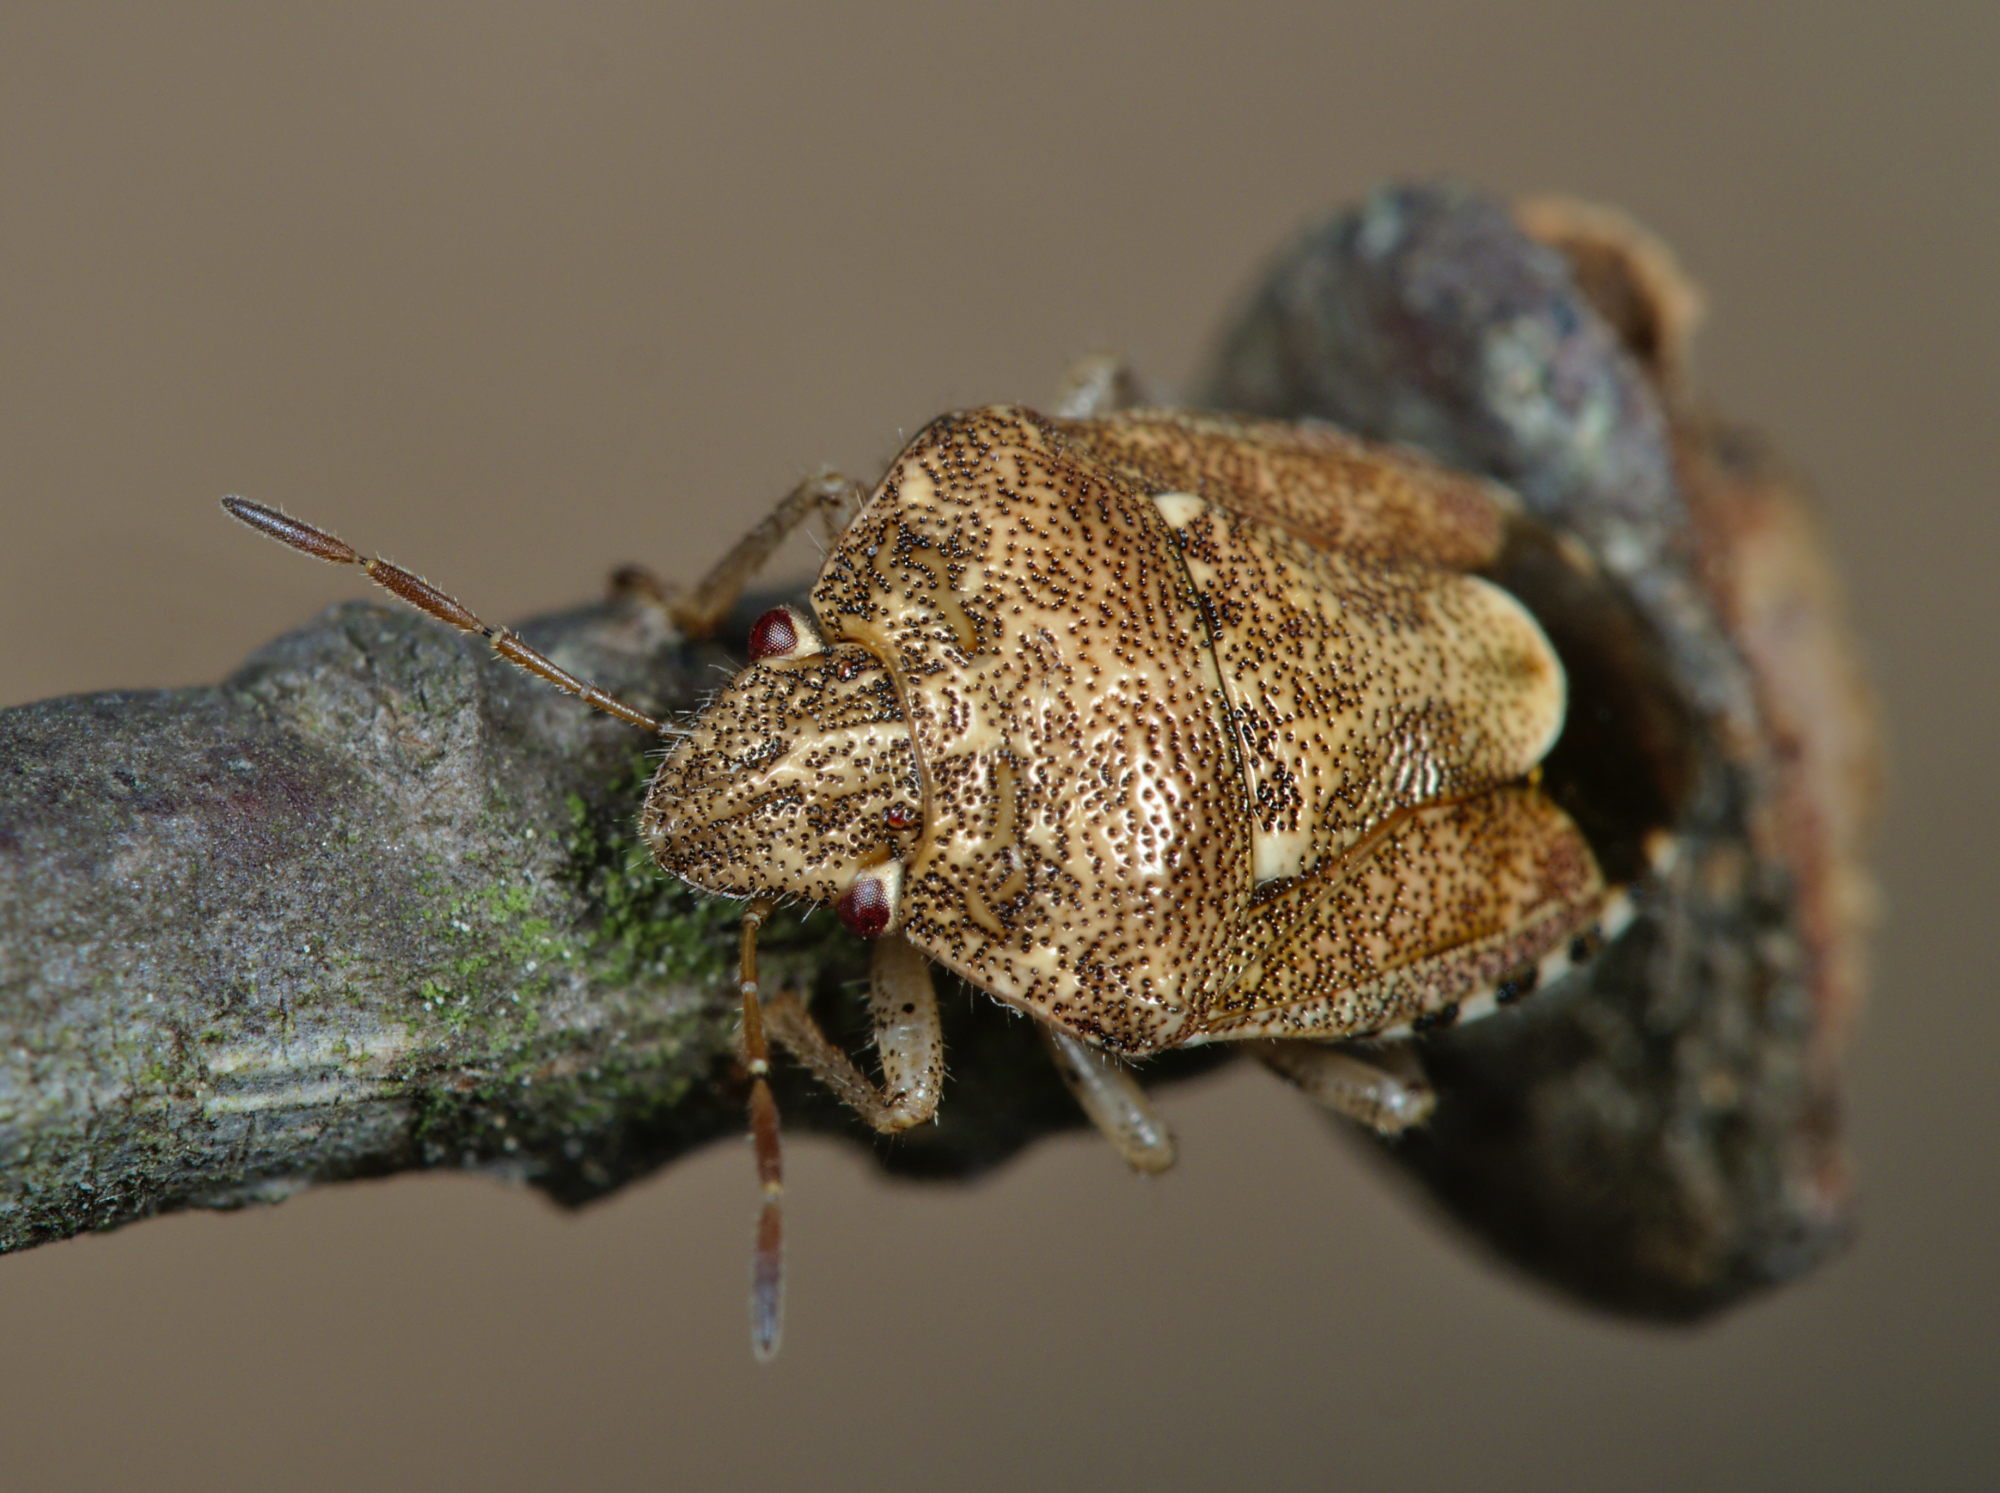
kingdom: Animalia
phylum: Arthropoda
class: Insecta
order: Hemiptera
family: Pentatomidae
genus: Staria
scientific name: Staria lunata
